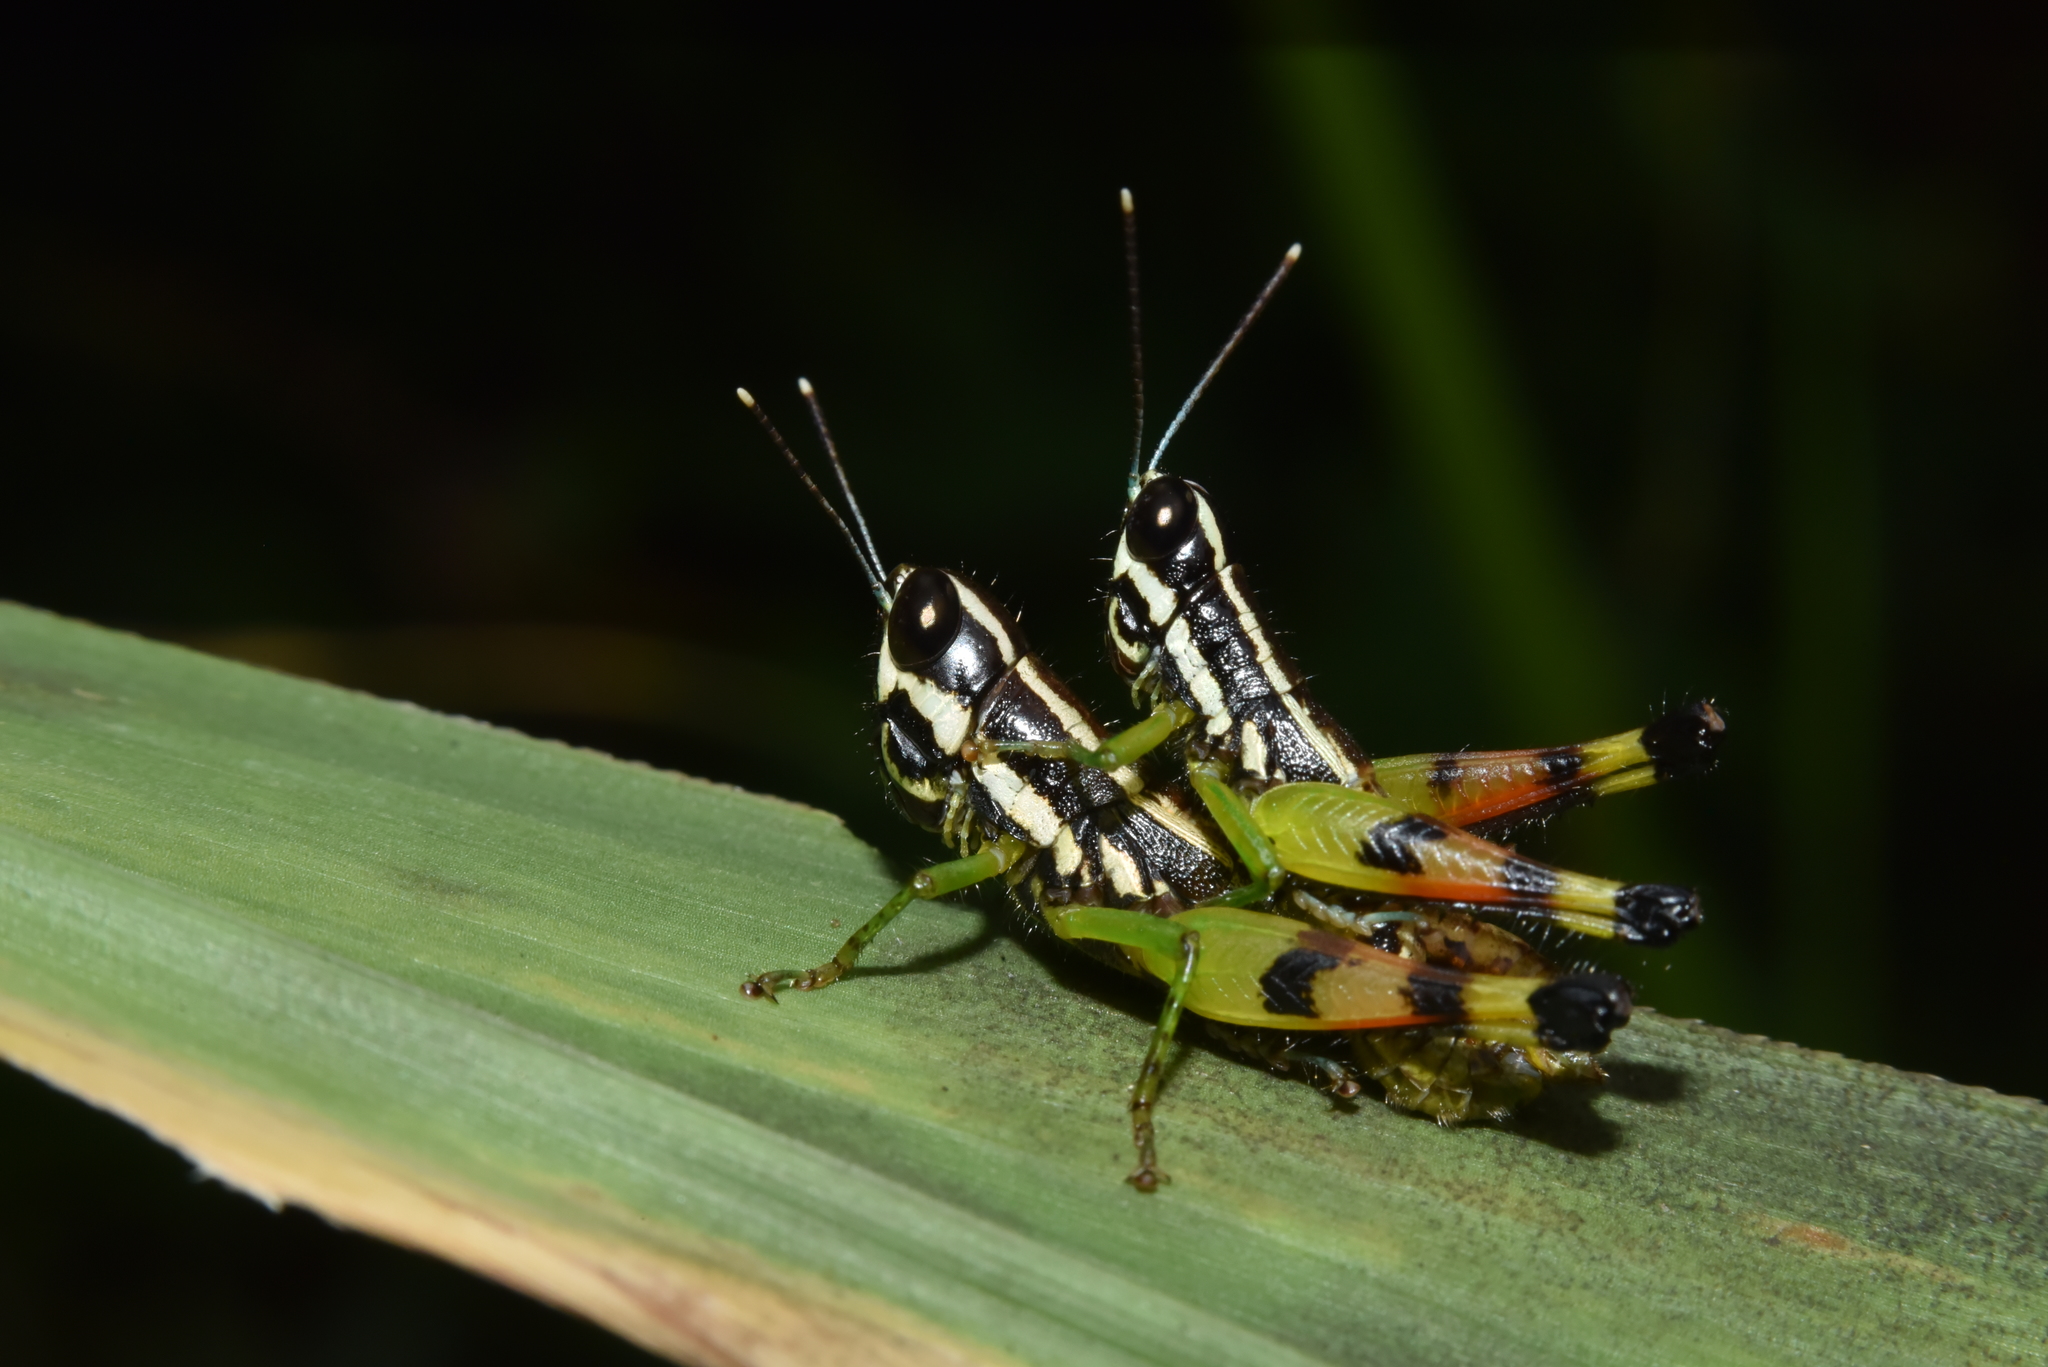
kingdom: Animalia
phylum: Arthropoda
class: Insecta
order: Orthoptera
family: Acrididae
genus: Chitaura
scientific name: Chitaura indica
